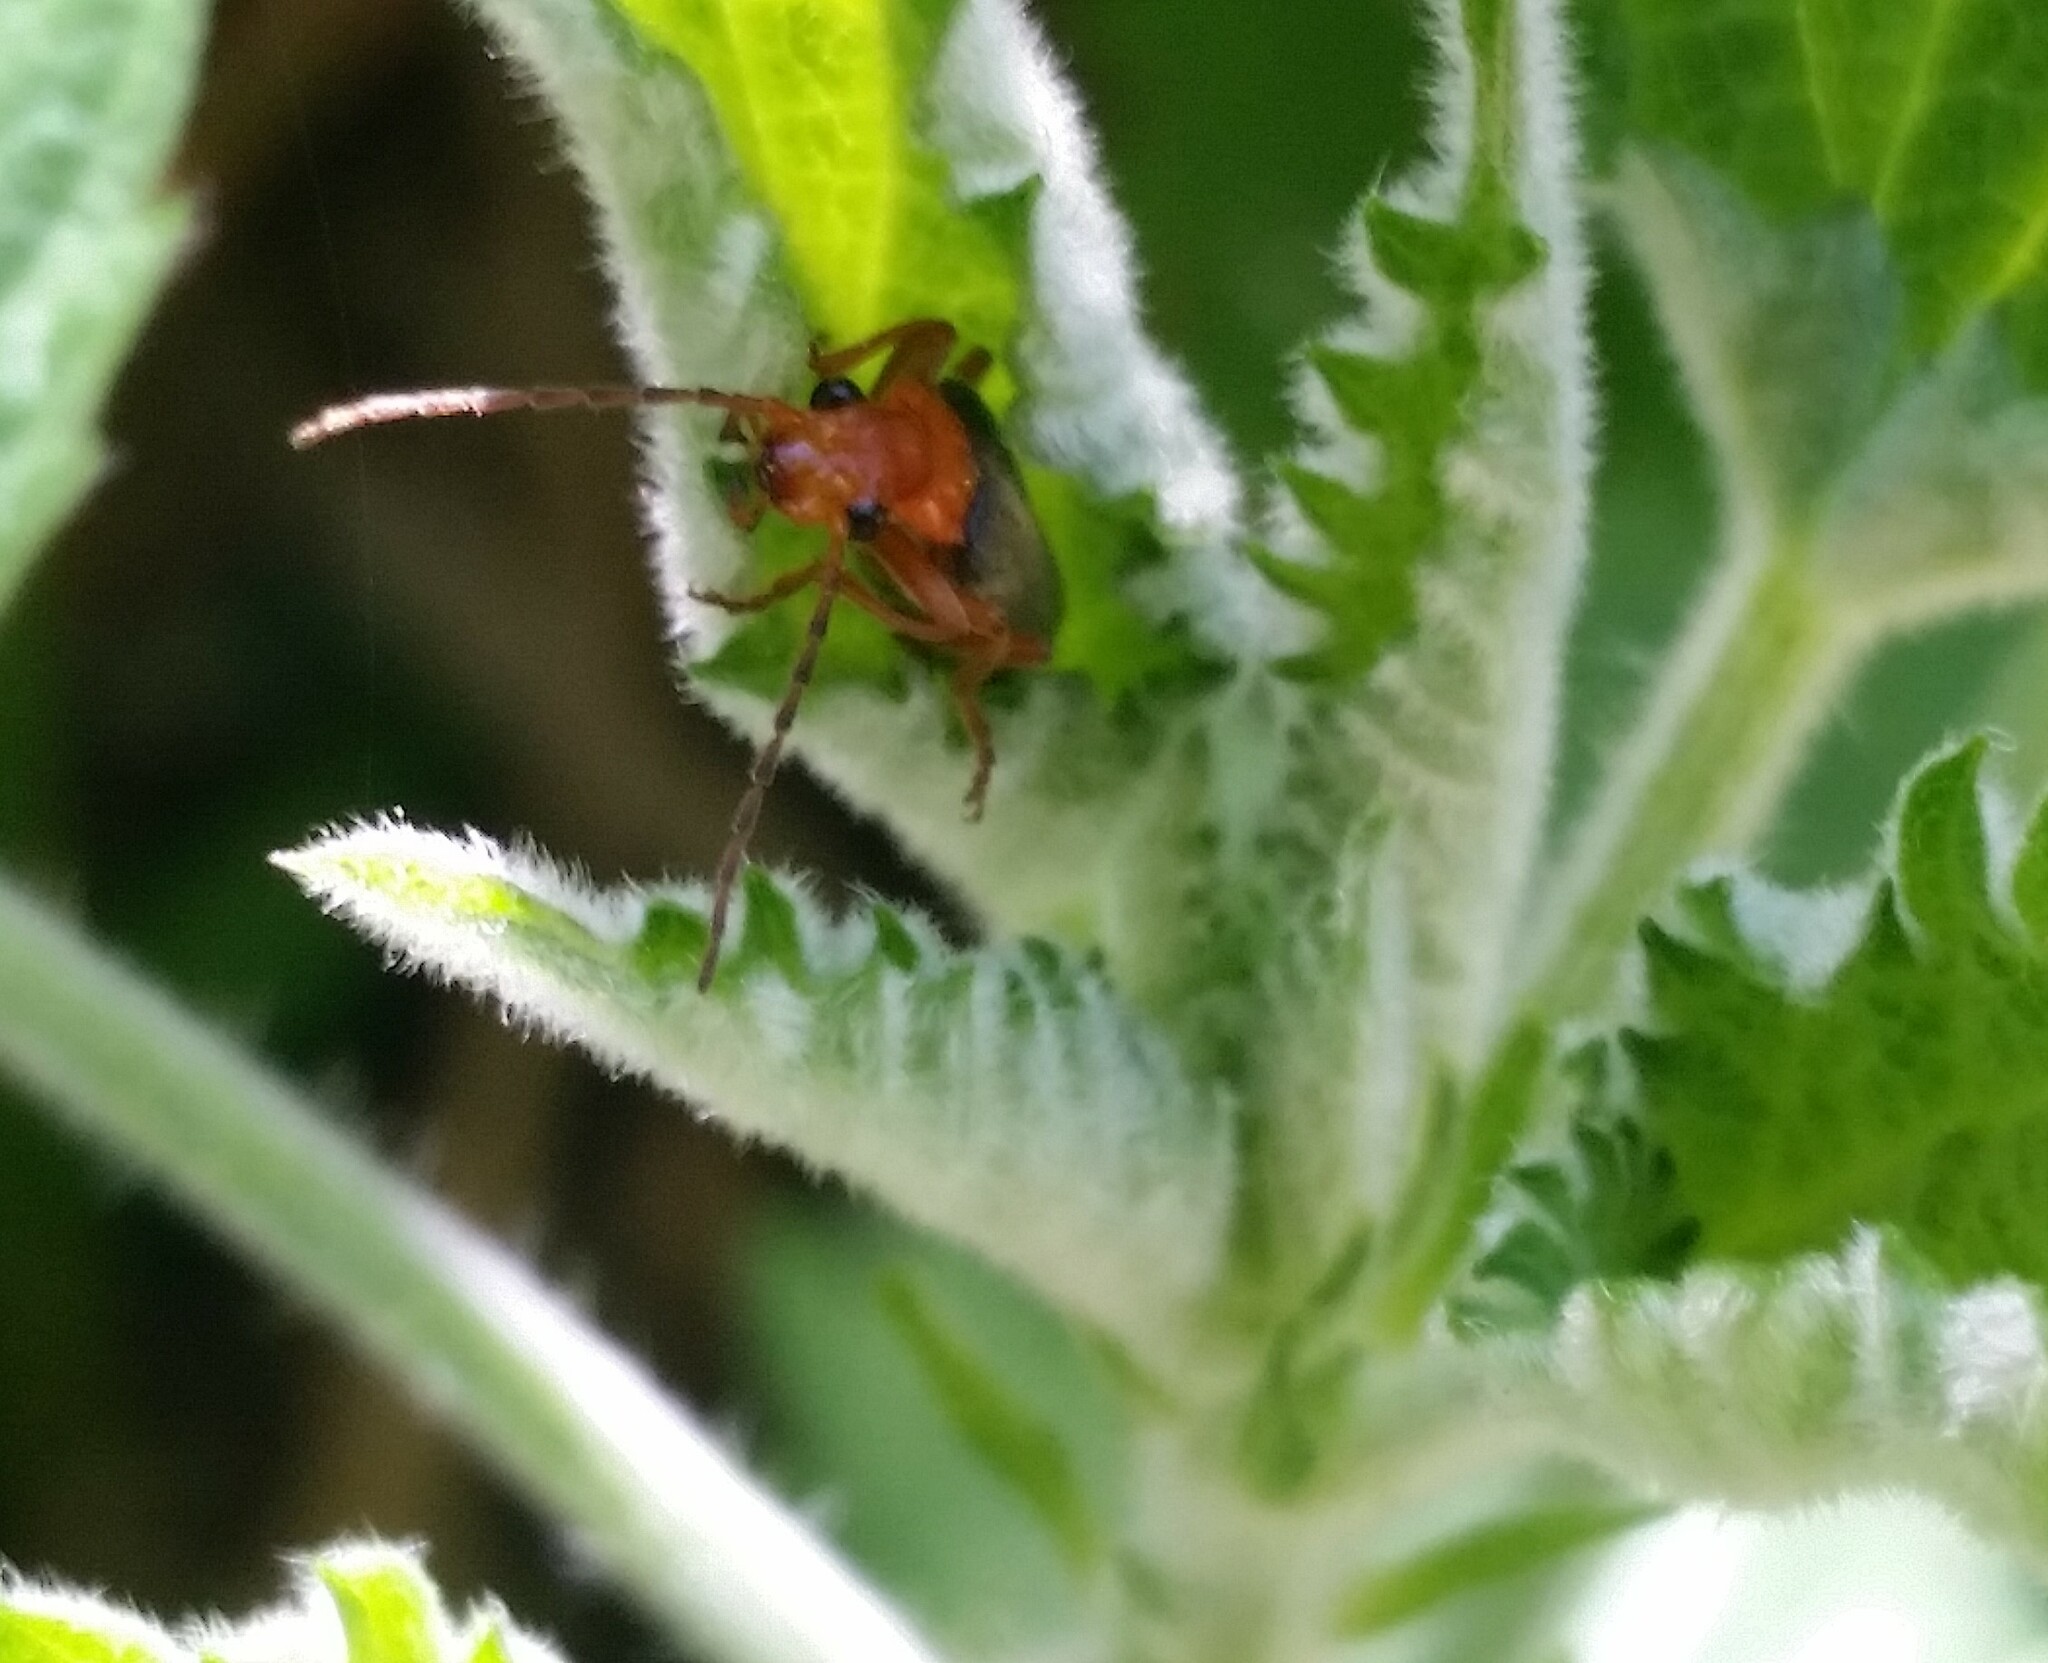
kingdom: Animalia
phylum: Arthropoda
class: Insecta
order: Coleoptera
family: Cantharidae
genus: Podabrus
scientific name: Podabrus pruinosus
